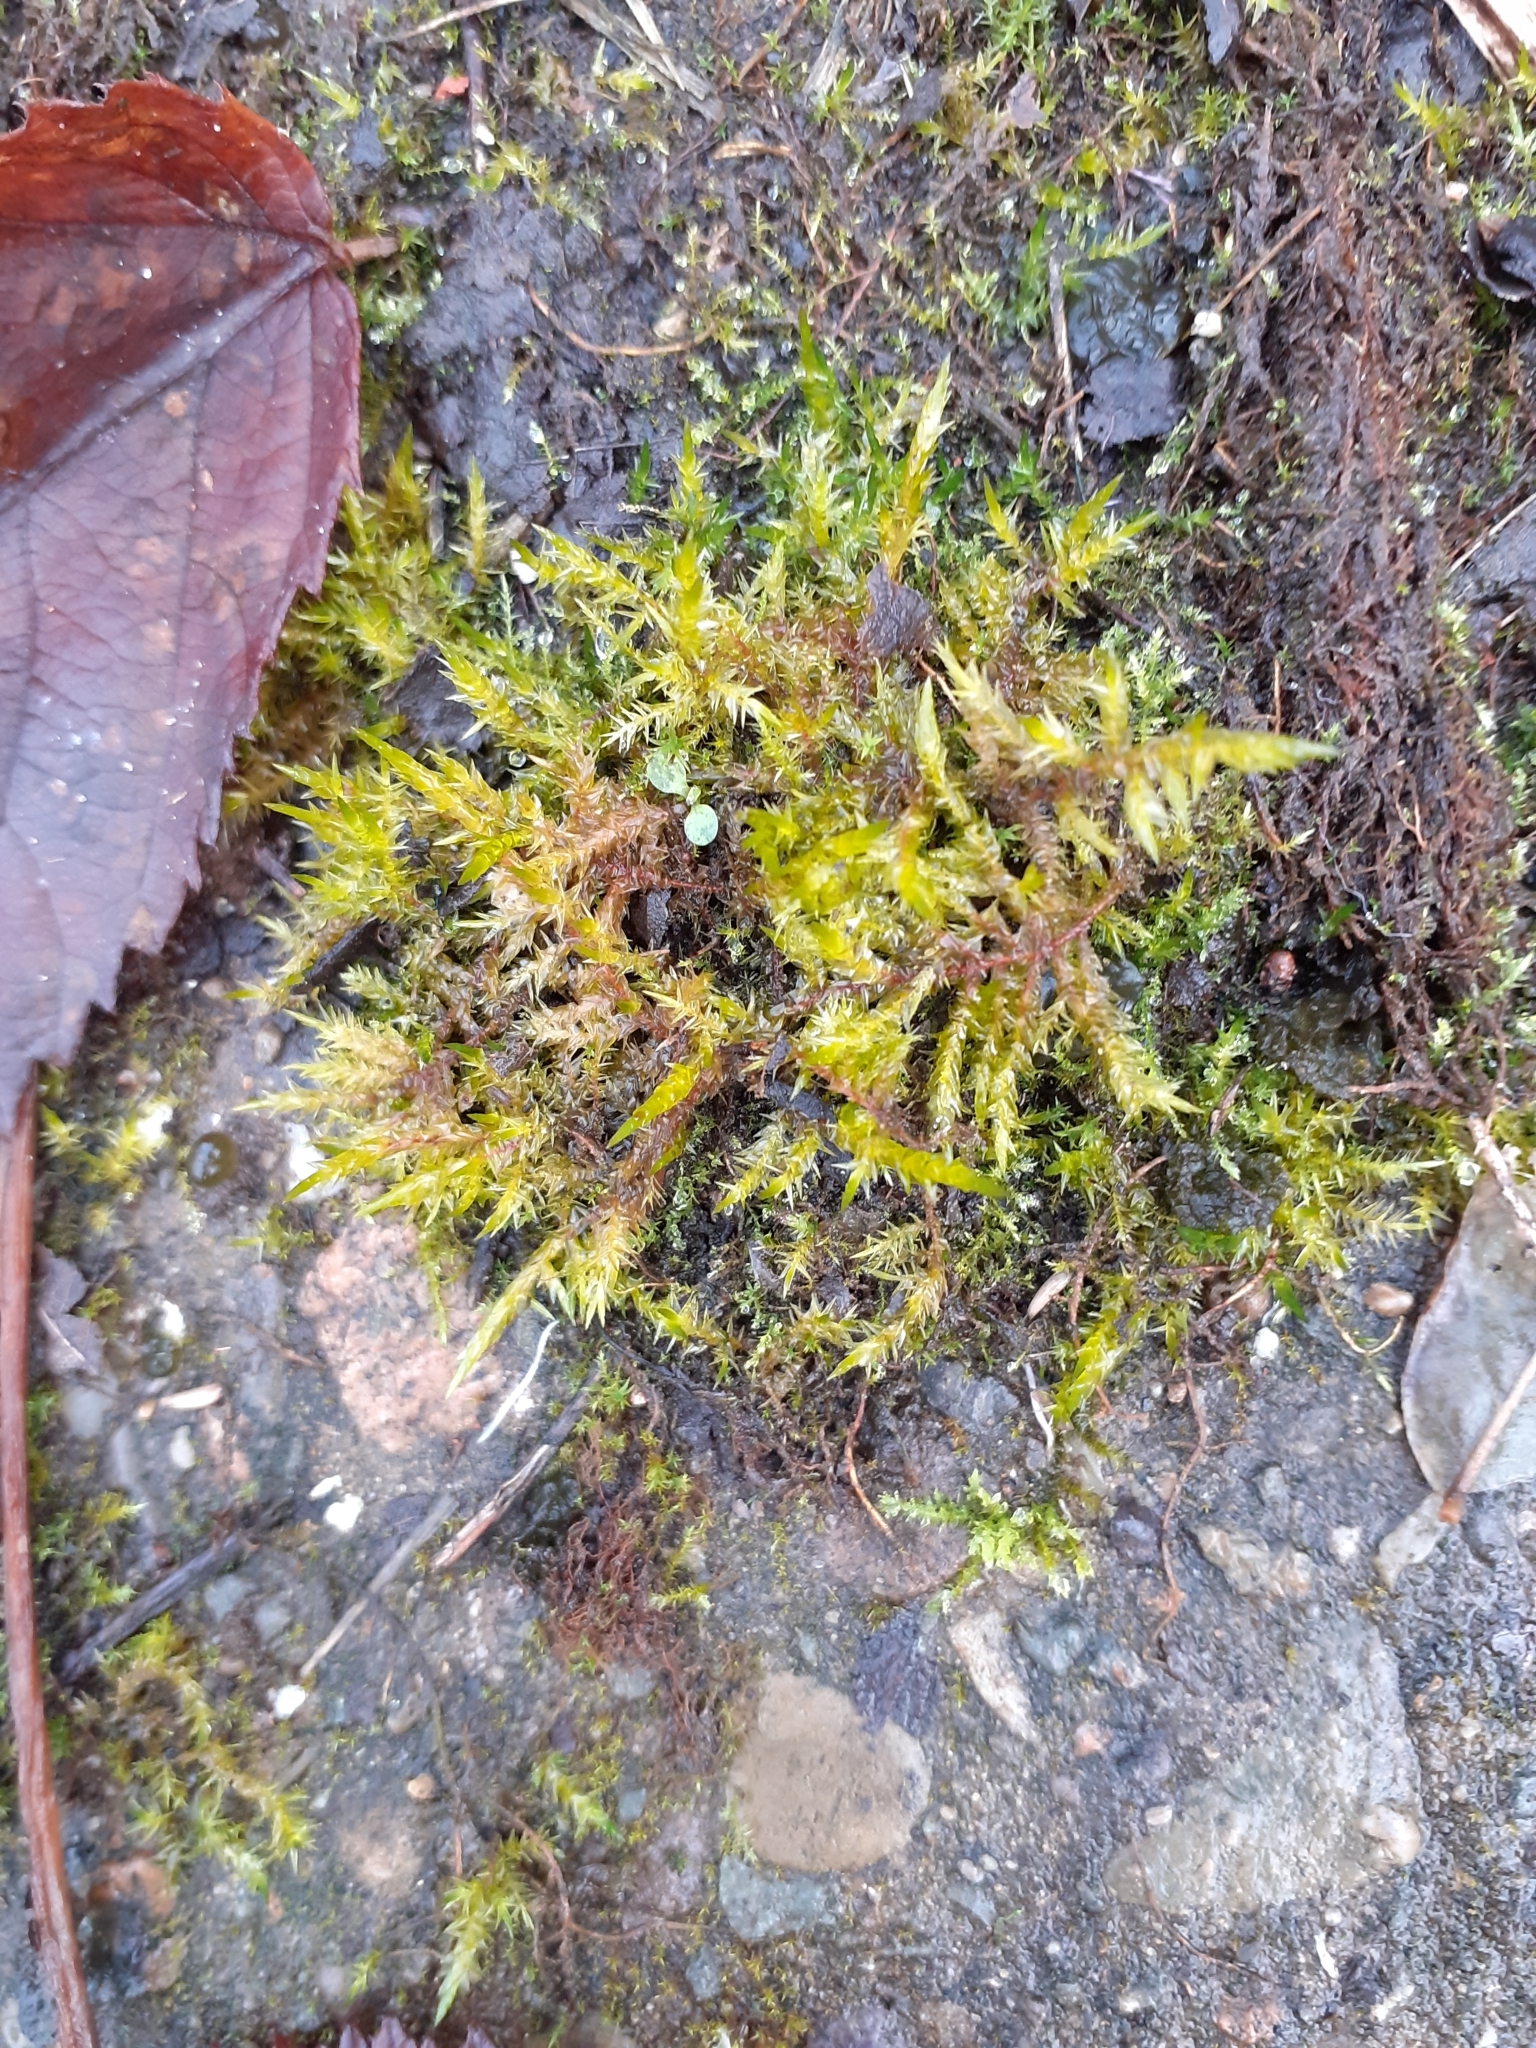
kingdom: Plantae
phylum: Bryophyta
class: Bryopsida
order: Hypnales
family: Pylaisiaceae
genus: Calliergonella
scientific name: Calliergonella cuspidata
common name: Common large wetland moss
